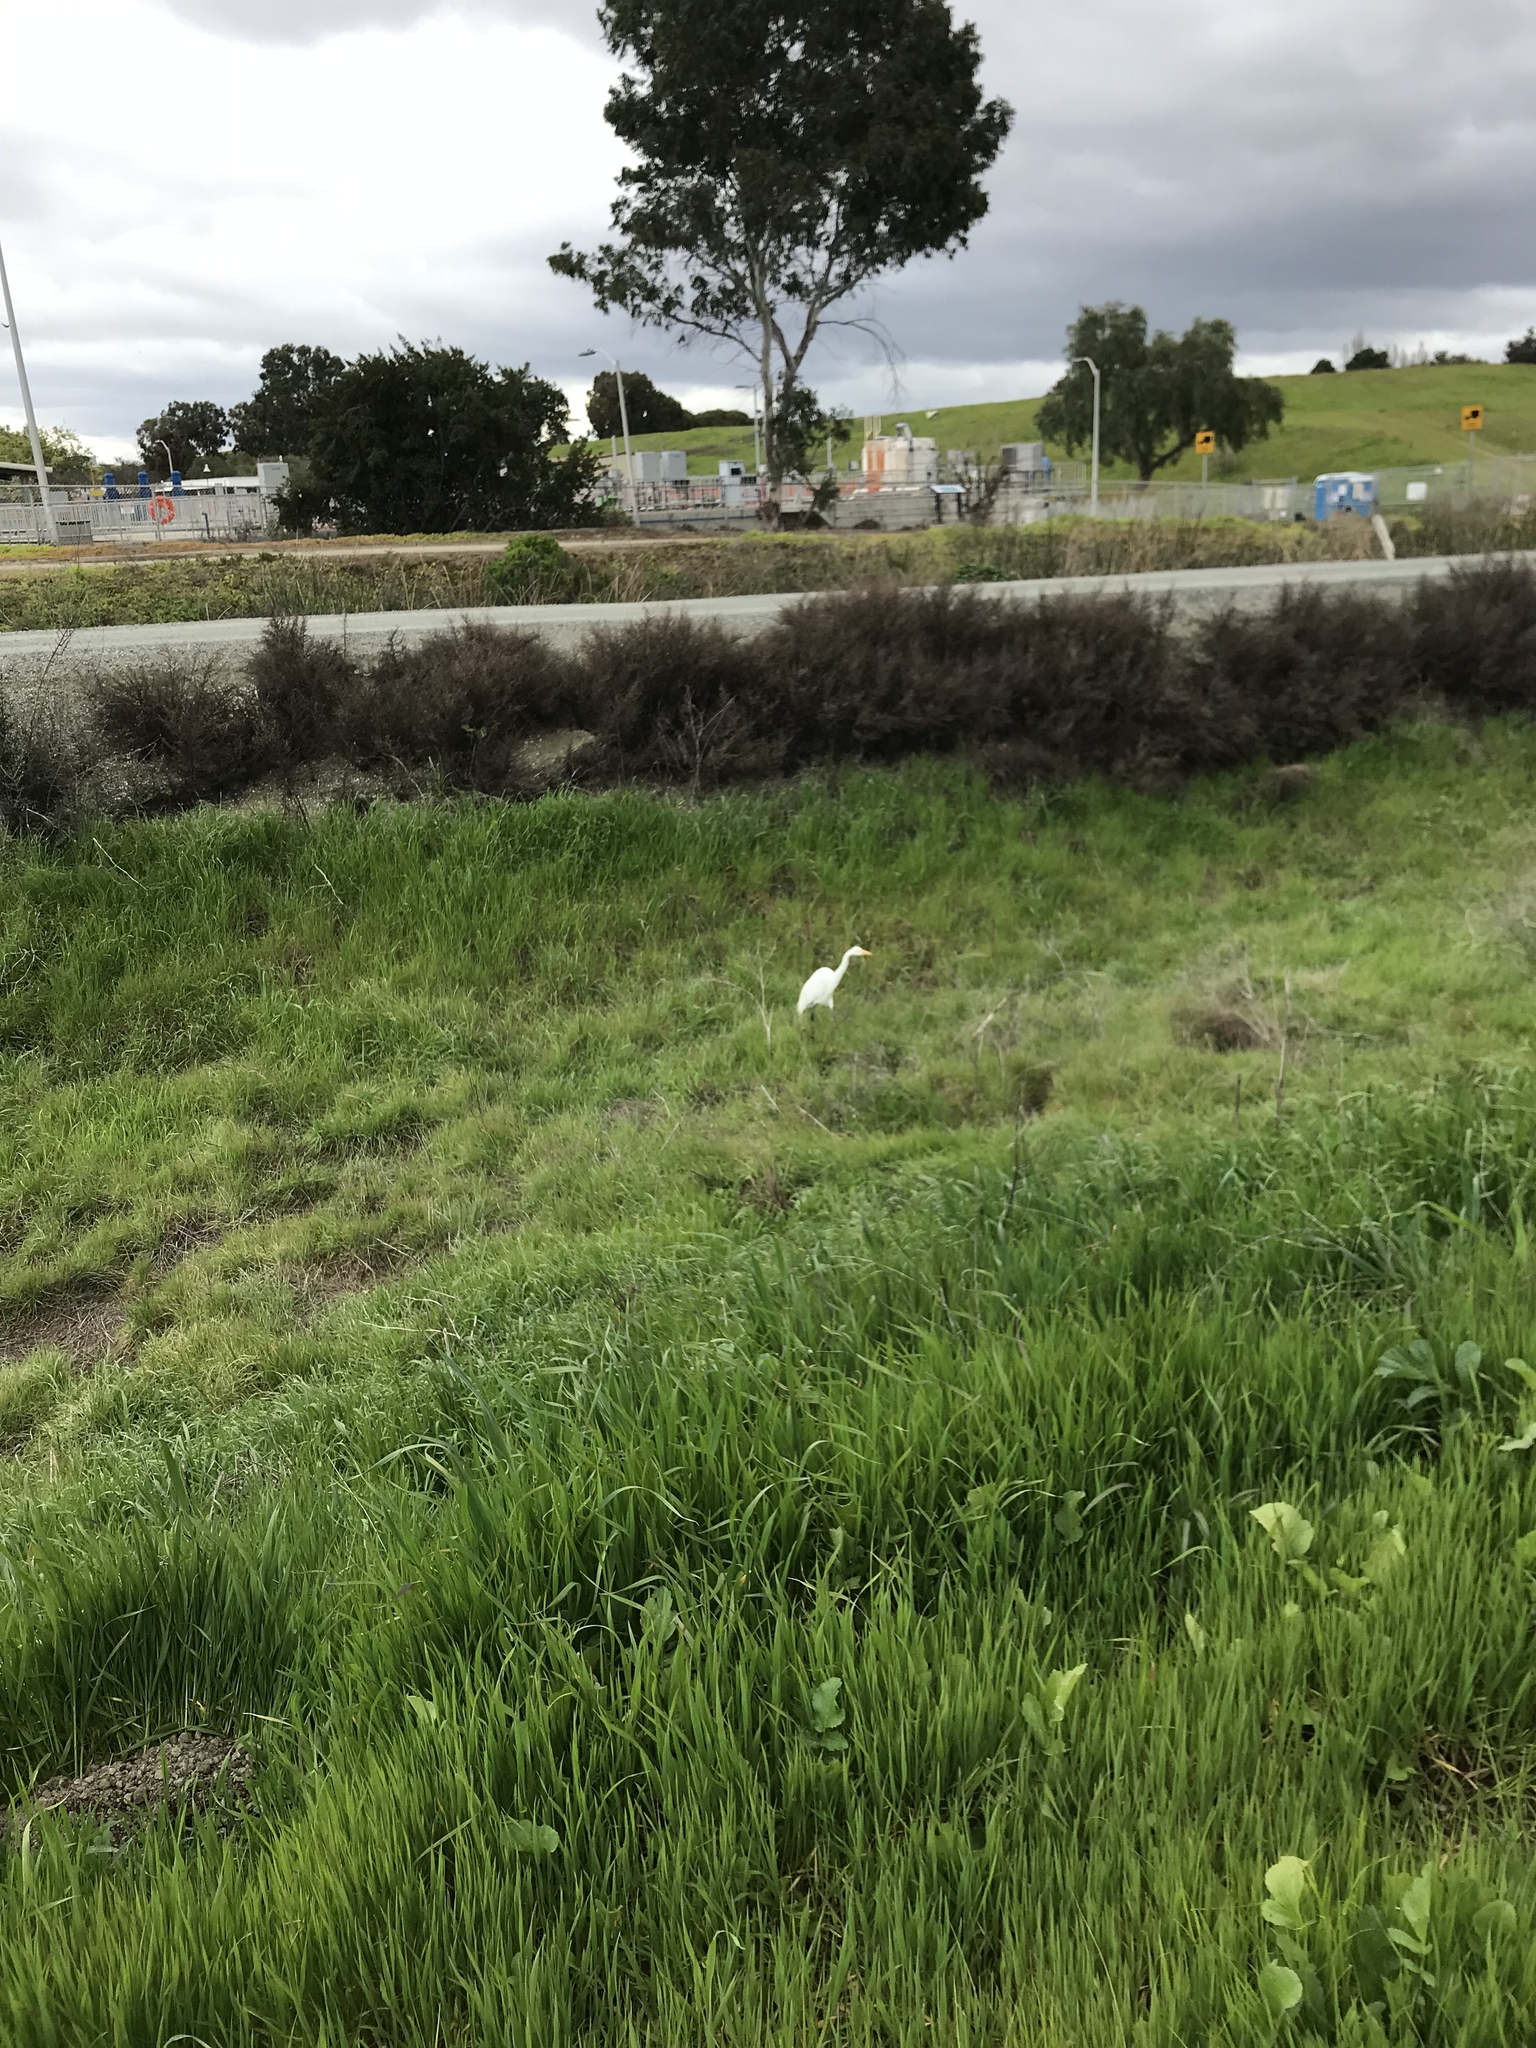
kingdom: Animalia
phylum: Chordata
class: Aves
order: Pelecaniformes
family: Ardeidae
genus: Ardea
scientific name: Ardea alba
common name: Great egret
